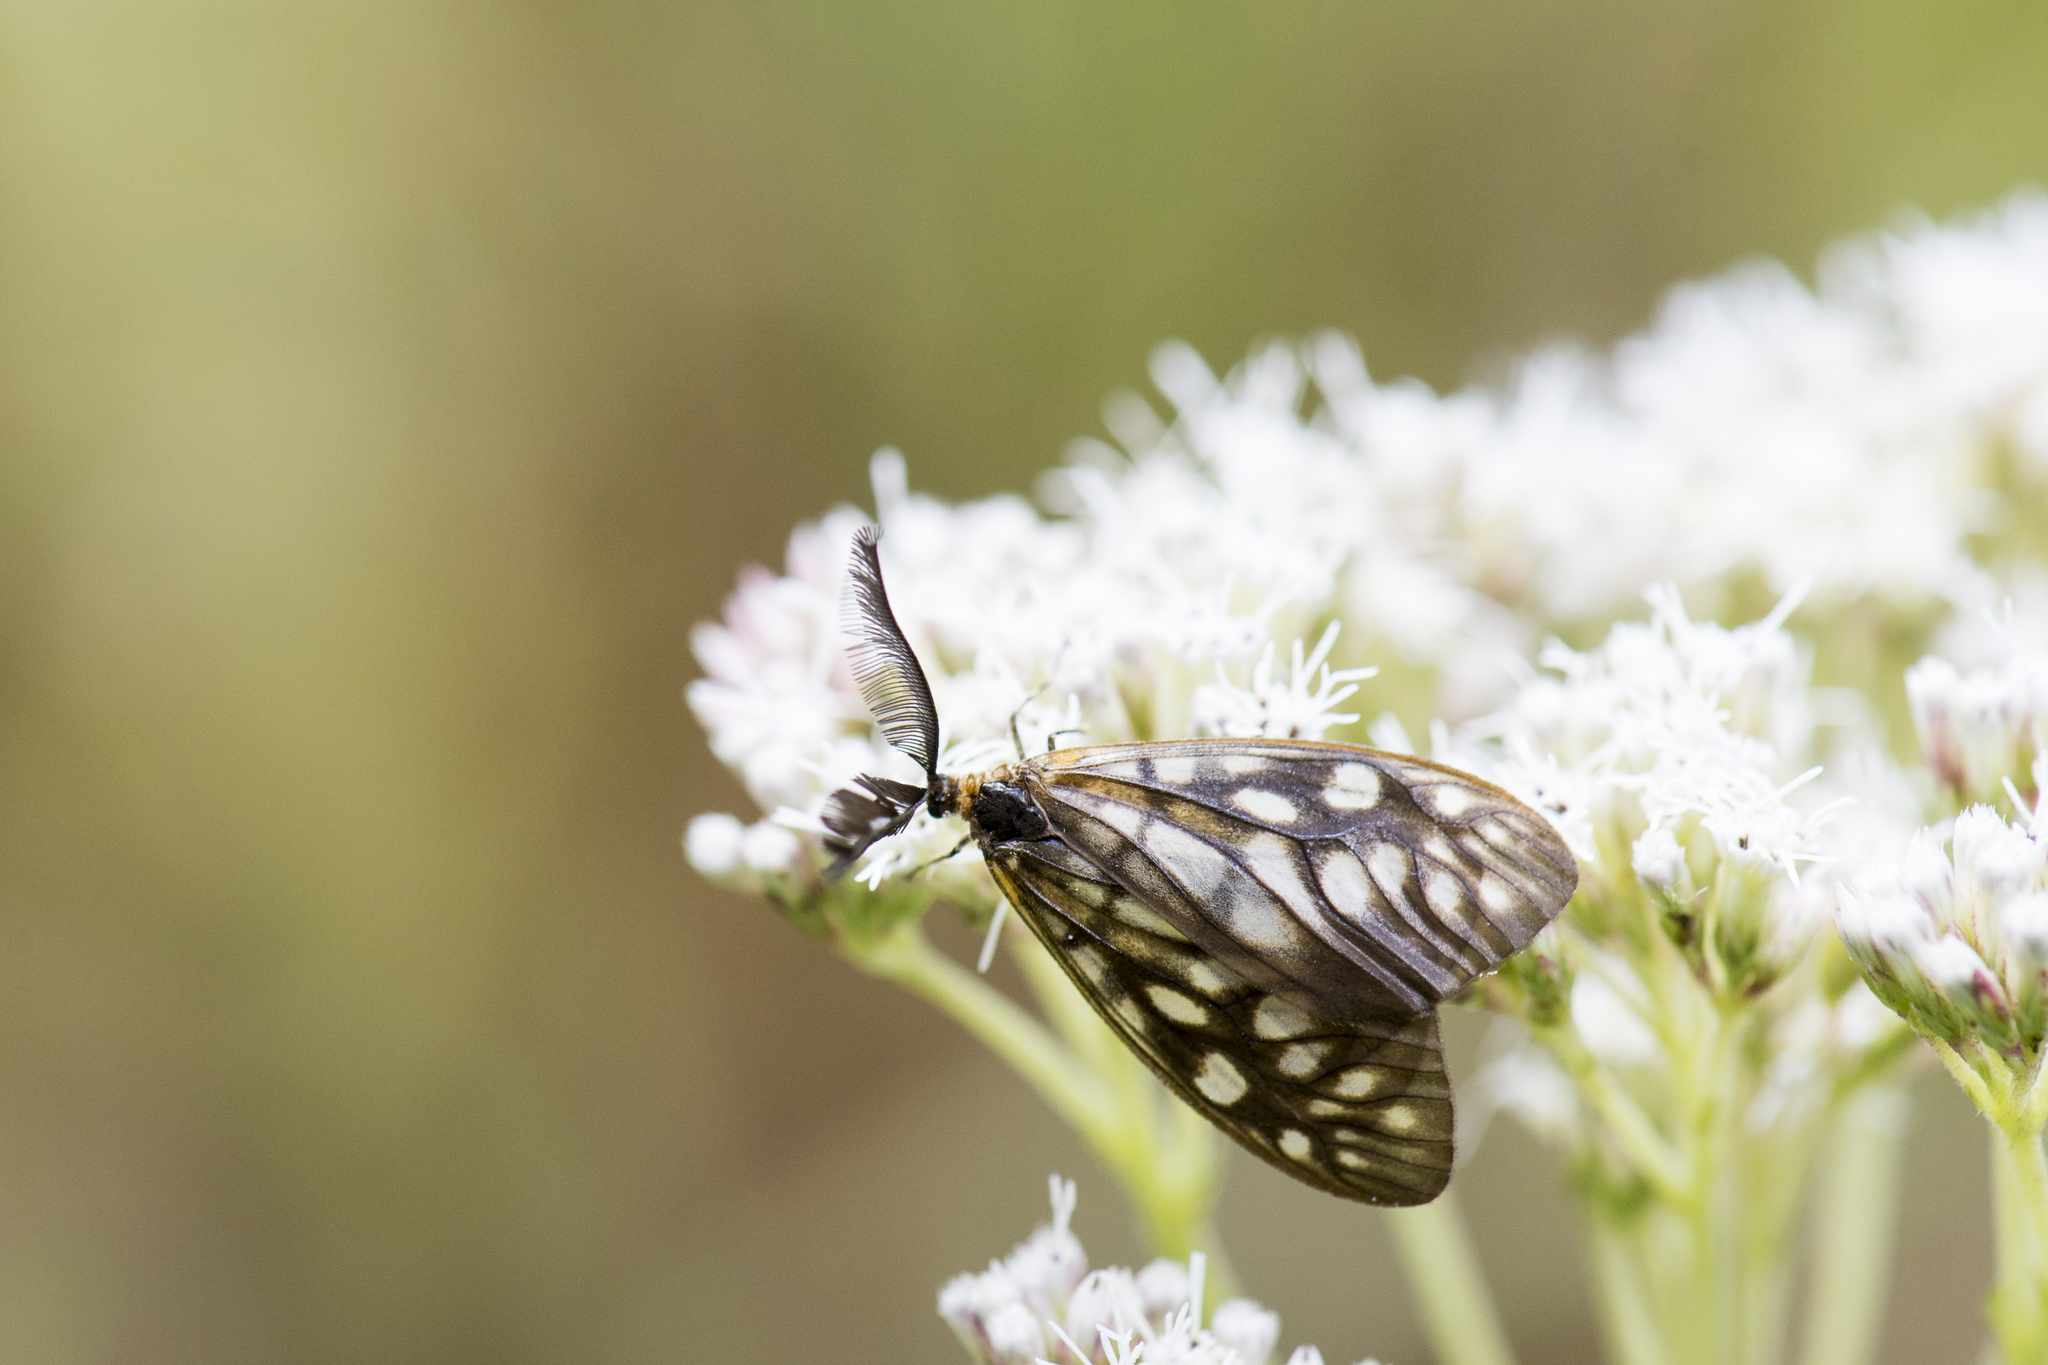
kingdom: Animalia
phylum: Arthropoda
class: Insecta
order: Lepidoptera
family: Zygaenidae
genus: Paragalope
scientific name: Paragalope wangi
